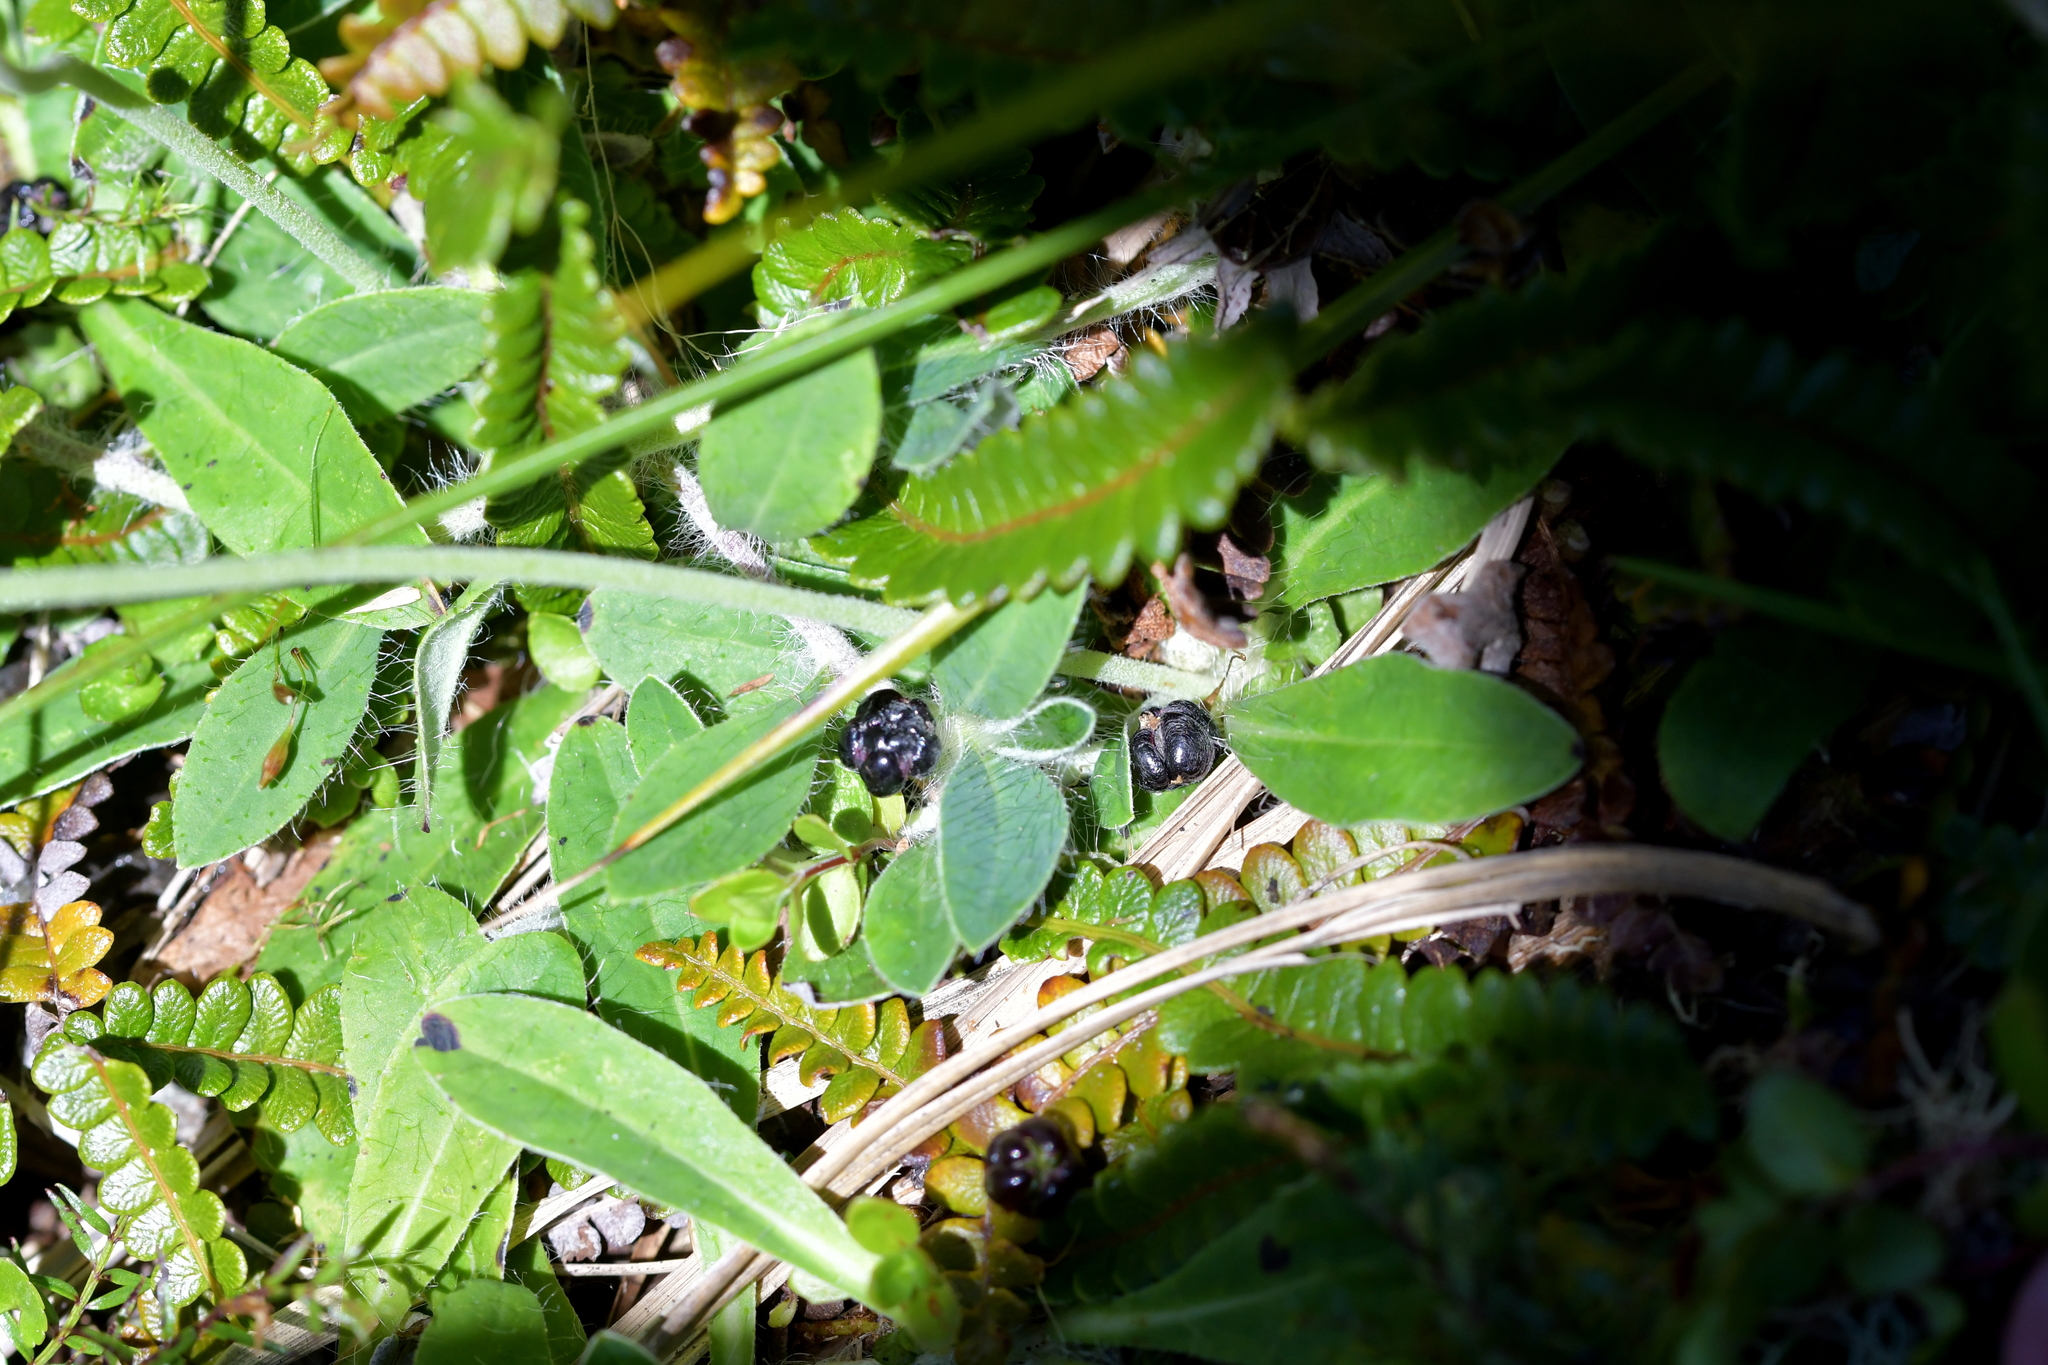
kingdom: Plantae
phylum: Tracheophyta
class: Magnoliopsida
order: Asterales
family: Asteraceae
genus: Pilosella
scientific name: Pilosella officinarum
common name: Mouse-ear hawkweed
